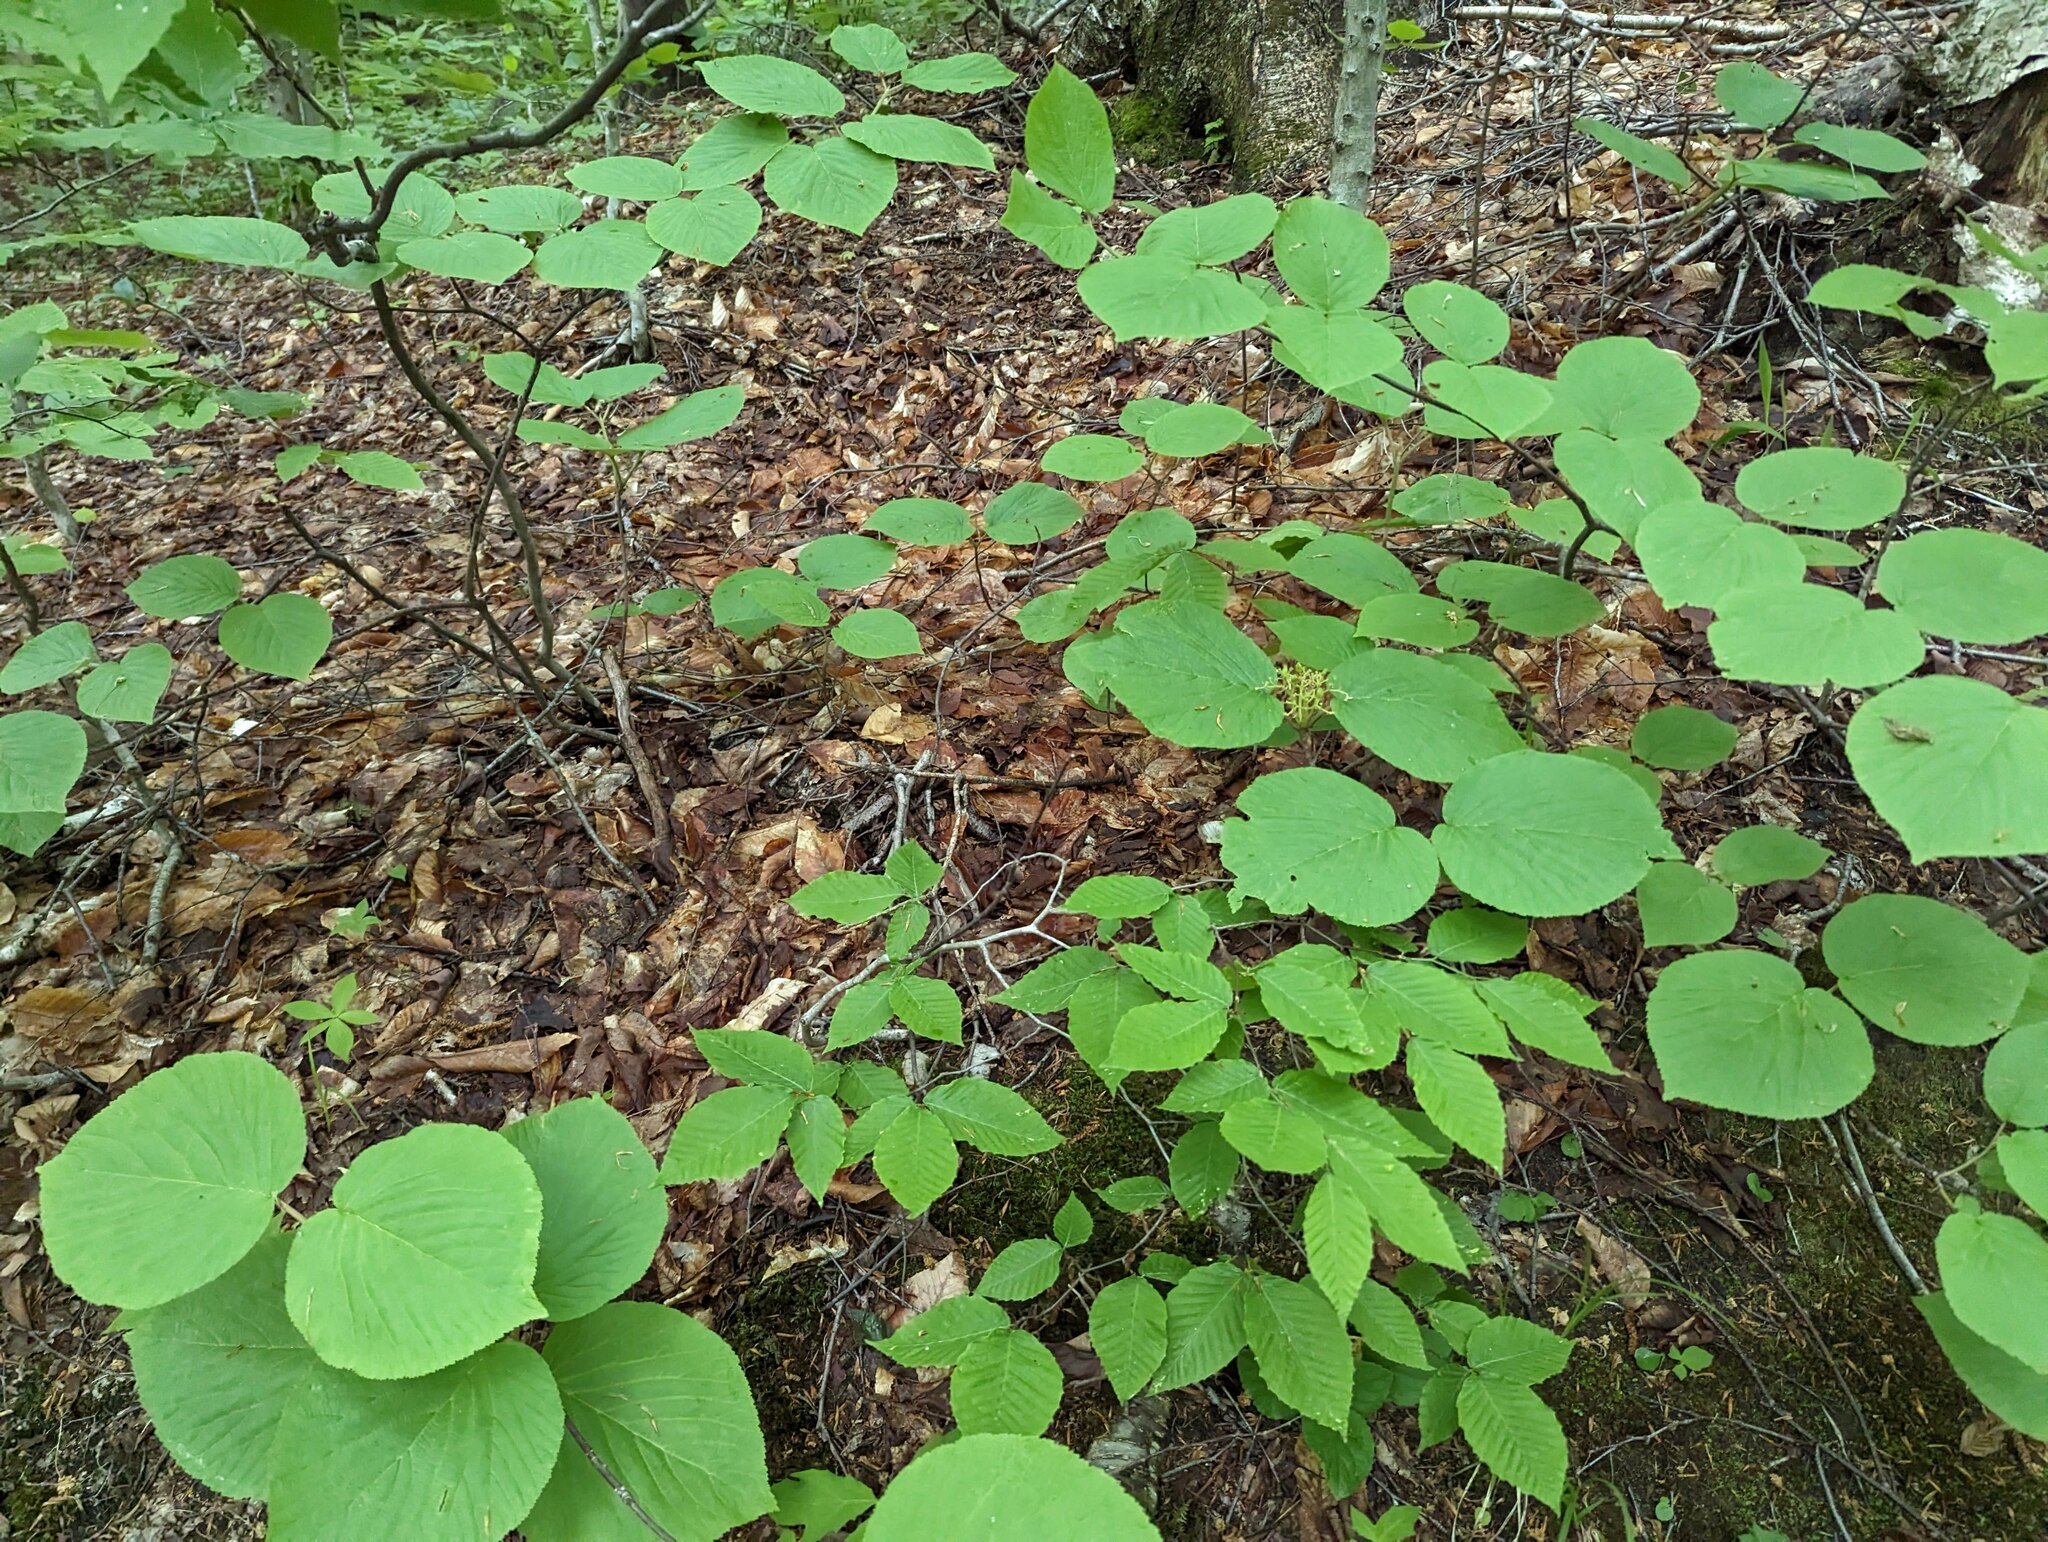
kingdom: Plantae
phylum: Tracheophyta
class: Magnoliopsida
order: Dipsacales
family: Viburnaceae
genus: Viburnum
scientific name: Viburnum lantanoides
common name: Hobblebush
